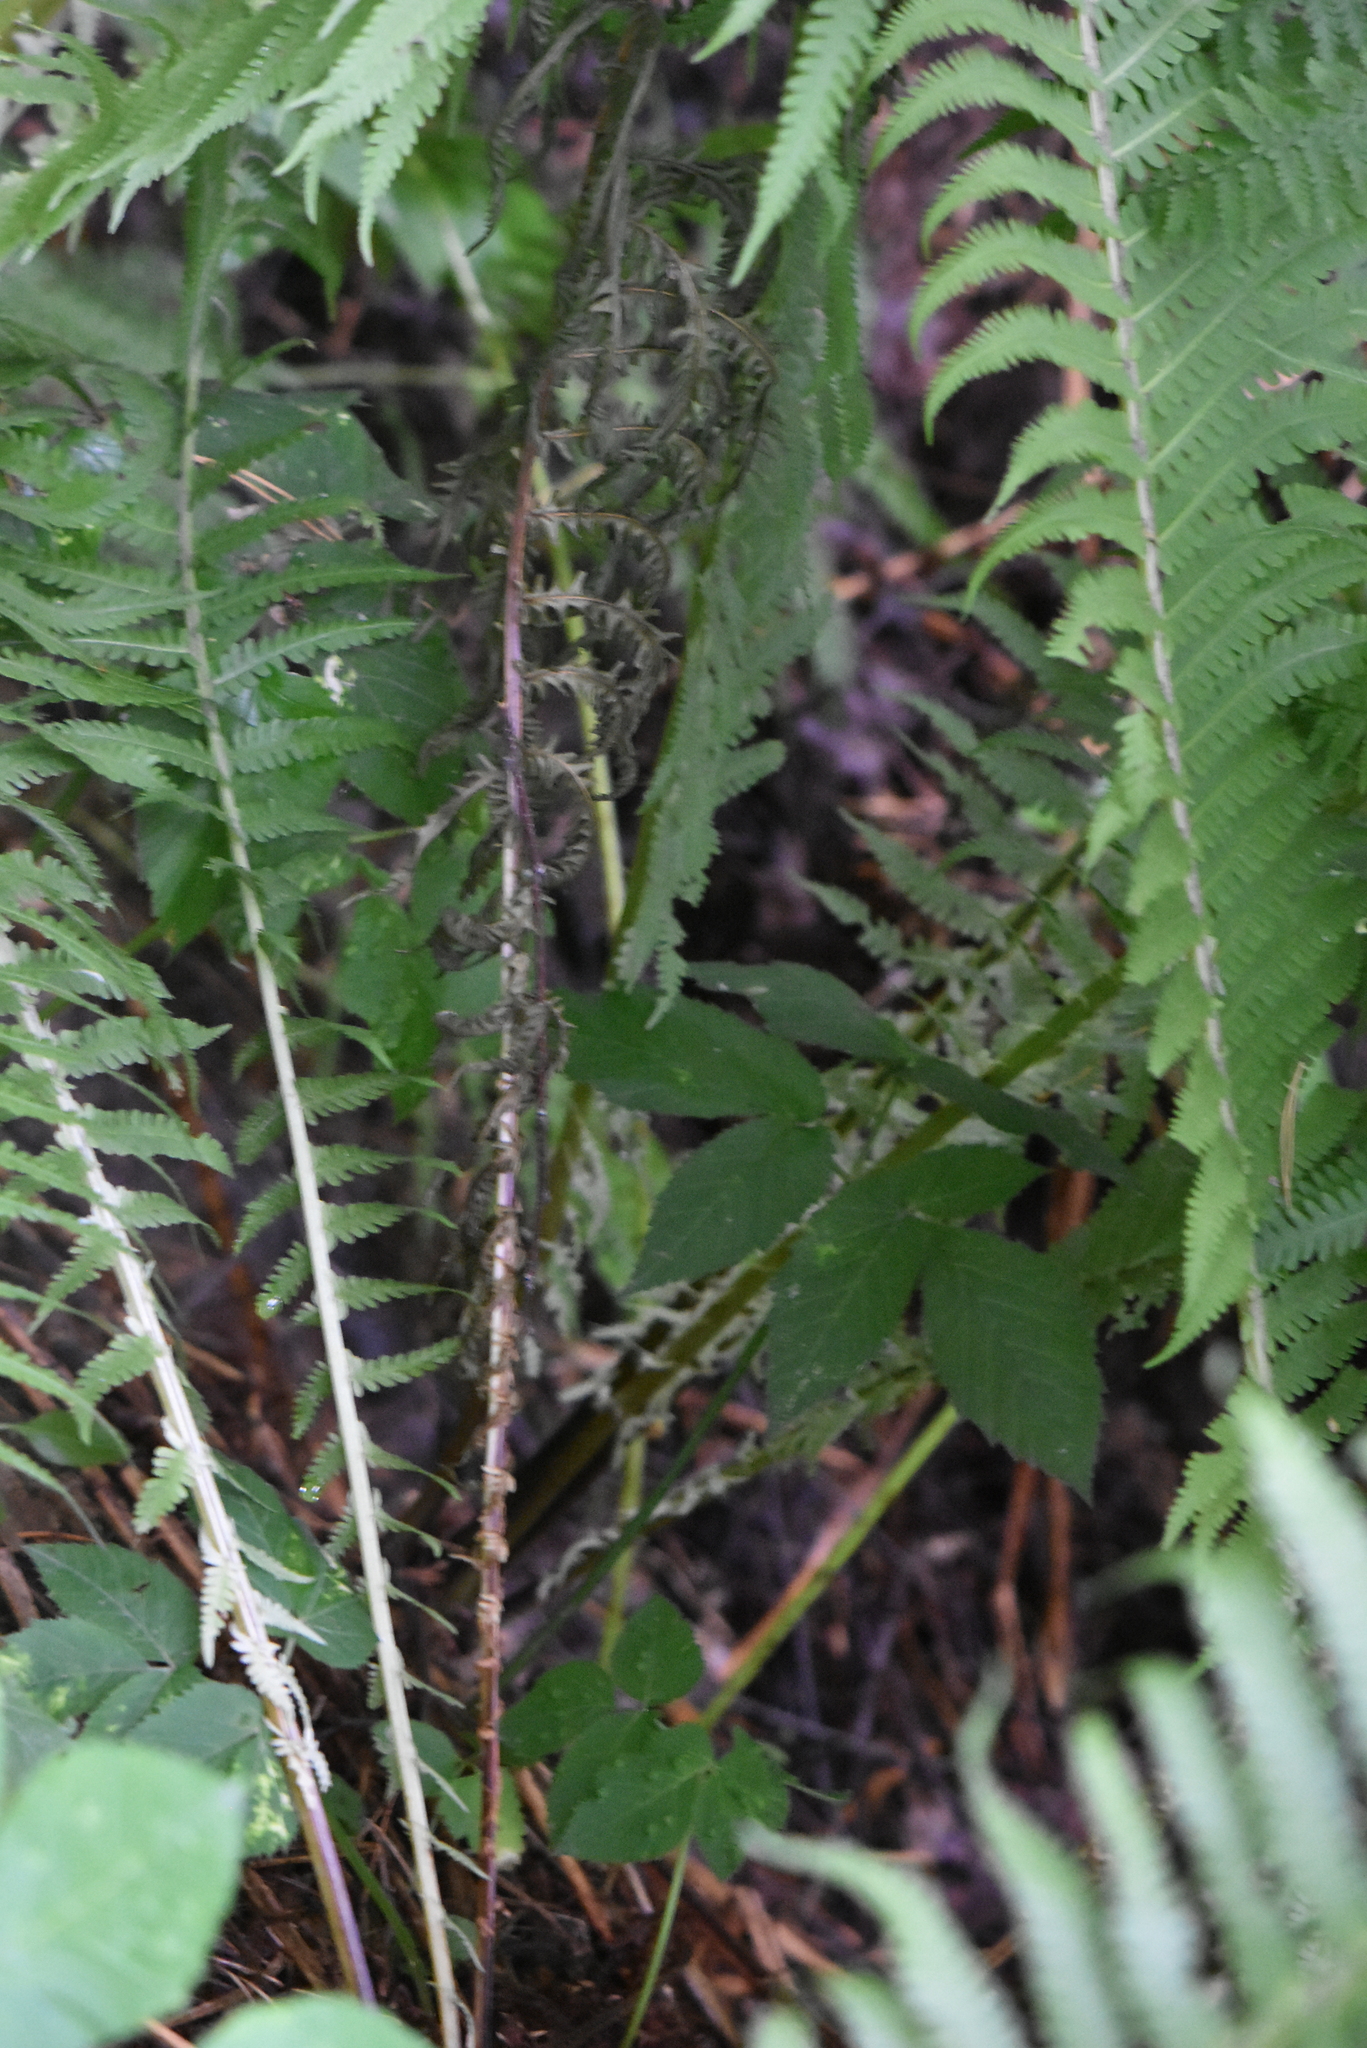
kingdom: Plantae
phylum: Tracheophyta
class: Polypodiopsida
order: Polypodiales
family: Onocleaceae
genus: Matteuccia
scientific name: Matteuccia struthiopteris
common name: Ostrich fern
